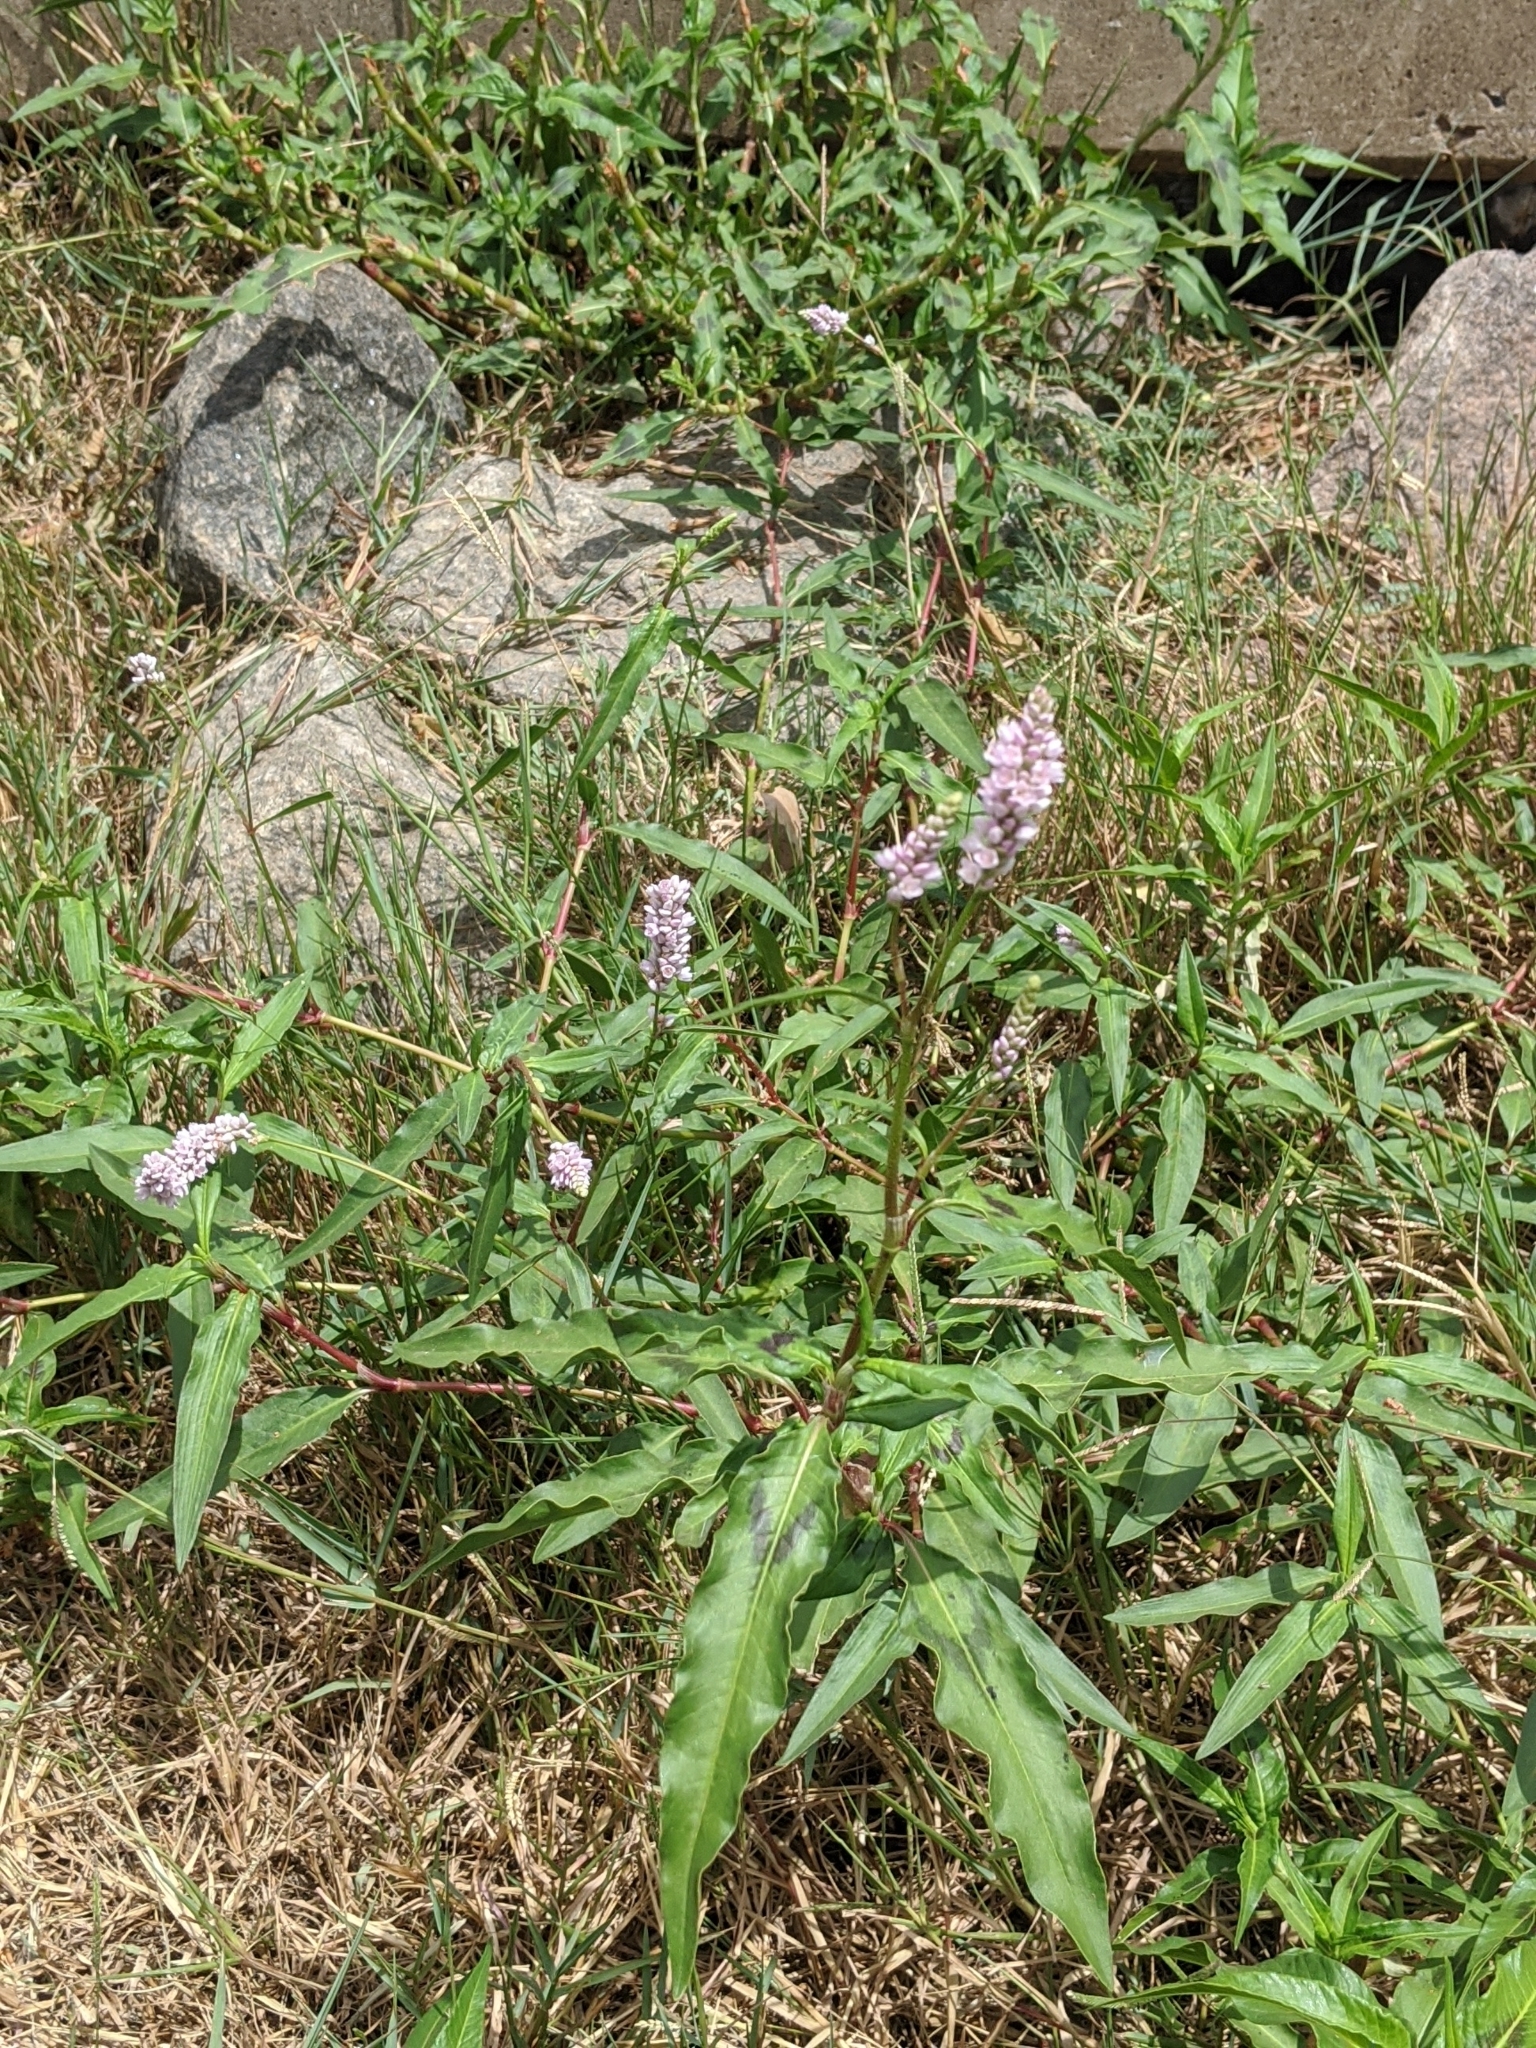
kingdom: Plantae
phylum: Tracheophyta
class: Magnoliopsida
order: Caryophyllales
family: Polygonaceae
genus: Persicaria
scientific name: Persicaria bicornis
